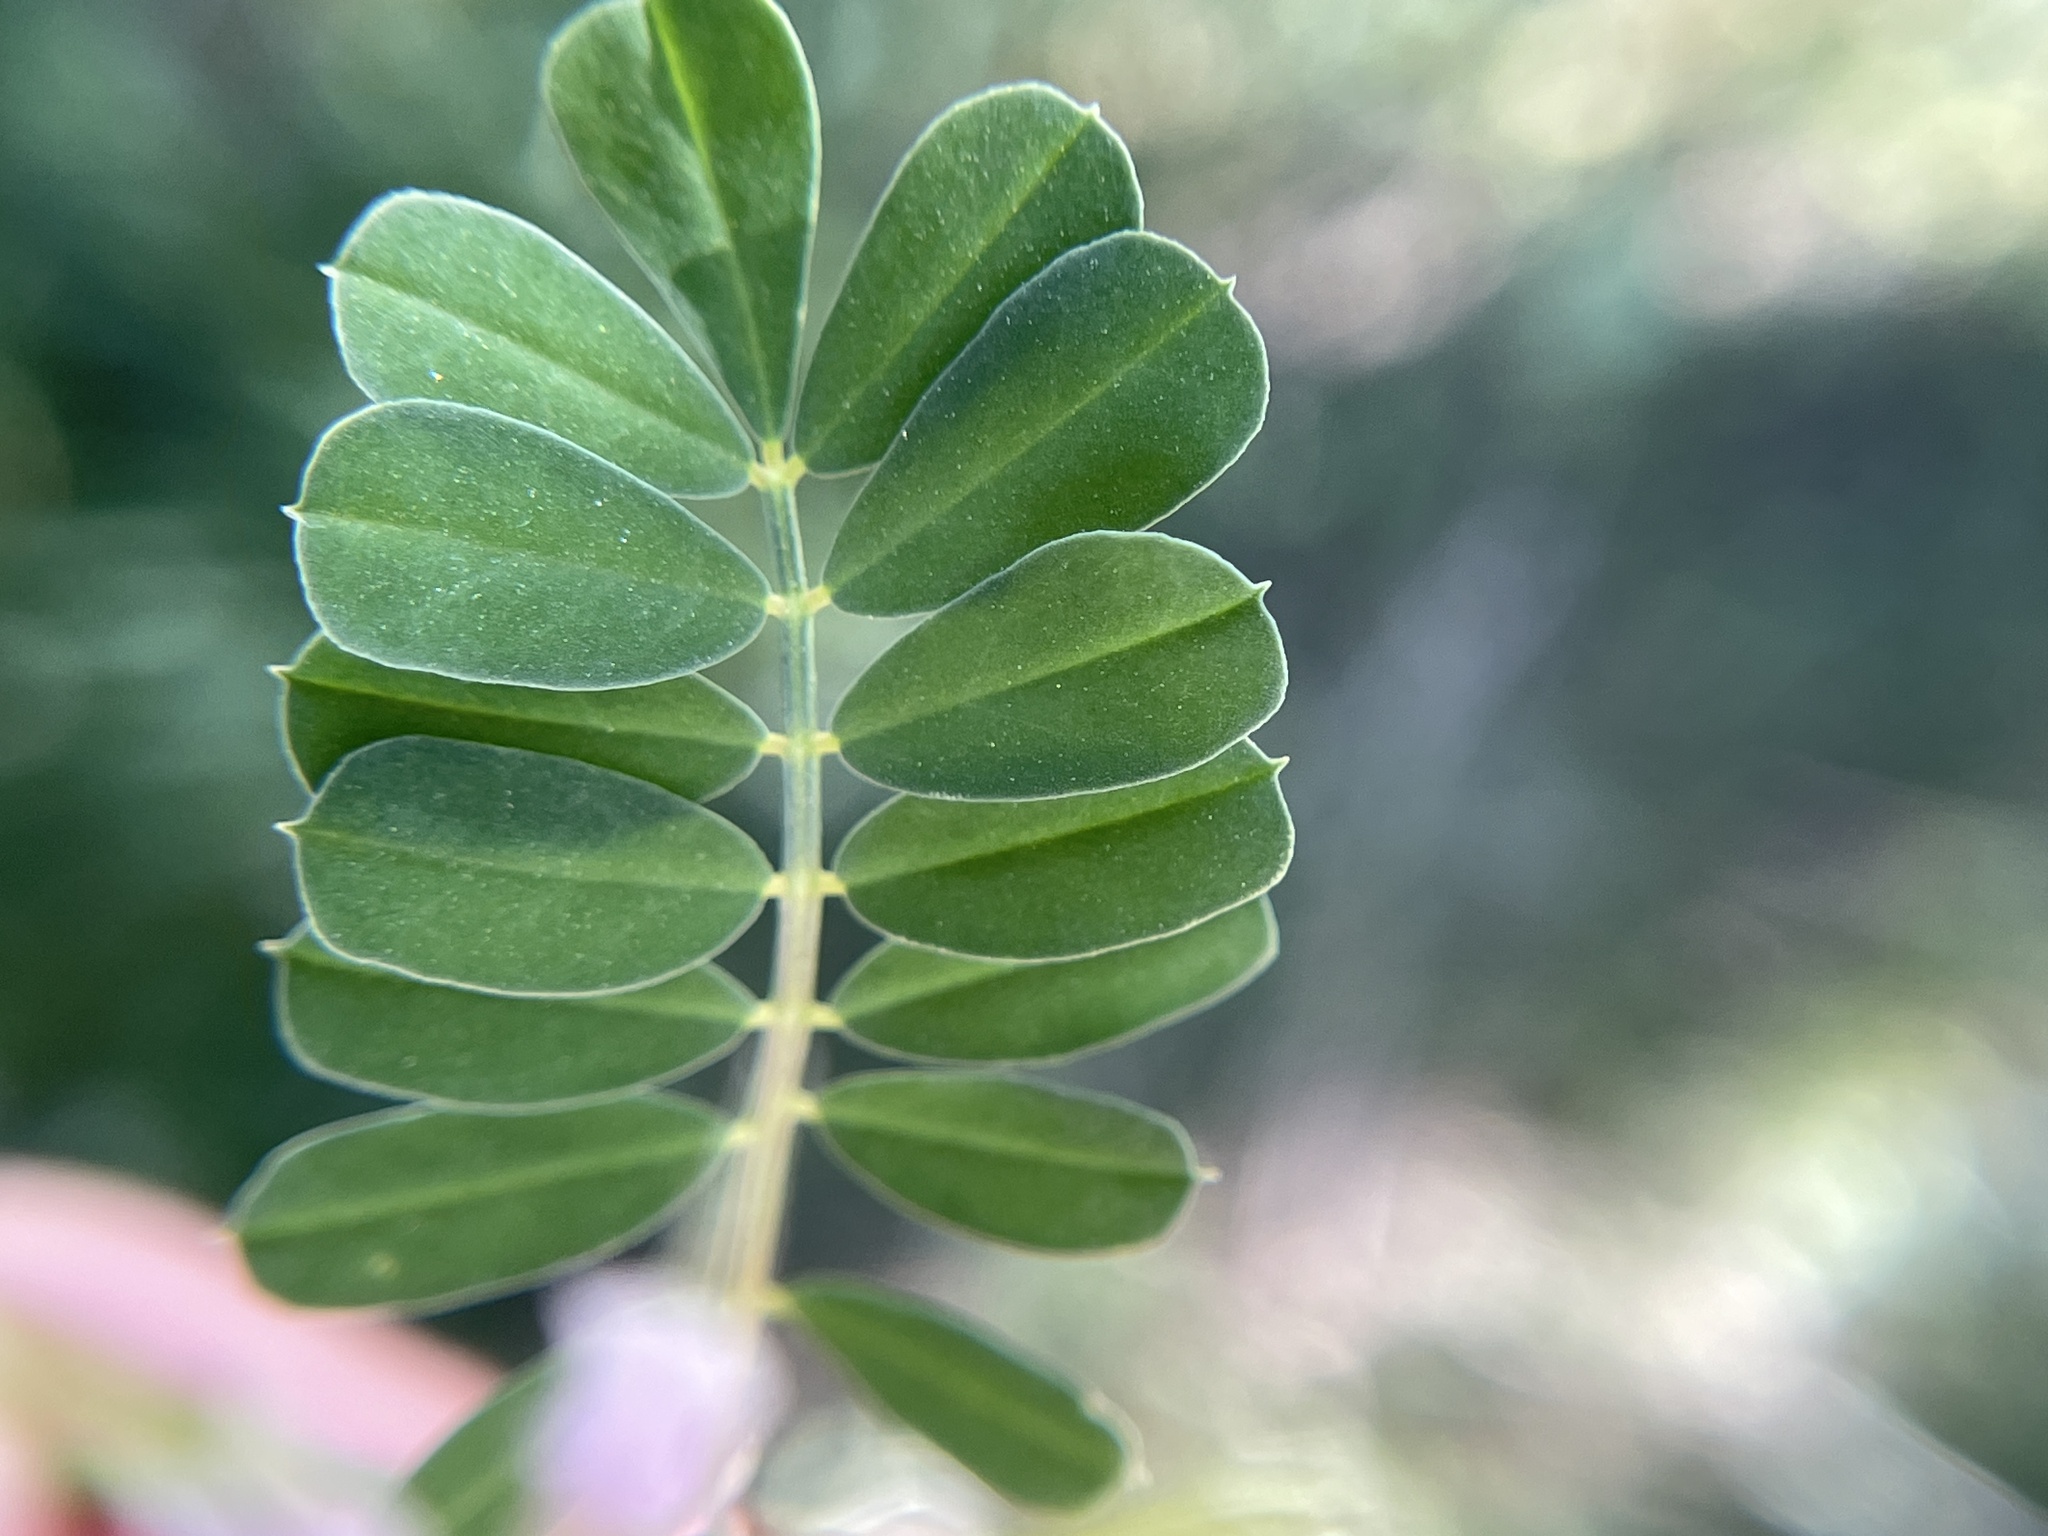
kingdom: Plantae
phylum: Tracheophyta
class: Magnoliopsida
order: Fabales
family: Fabaceae
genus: Coronilla
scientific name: Coronilla cretica
